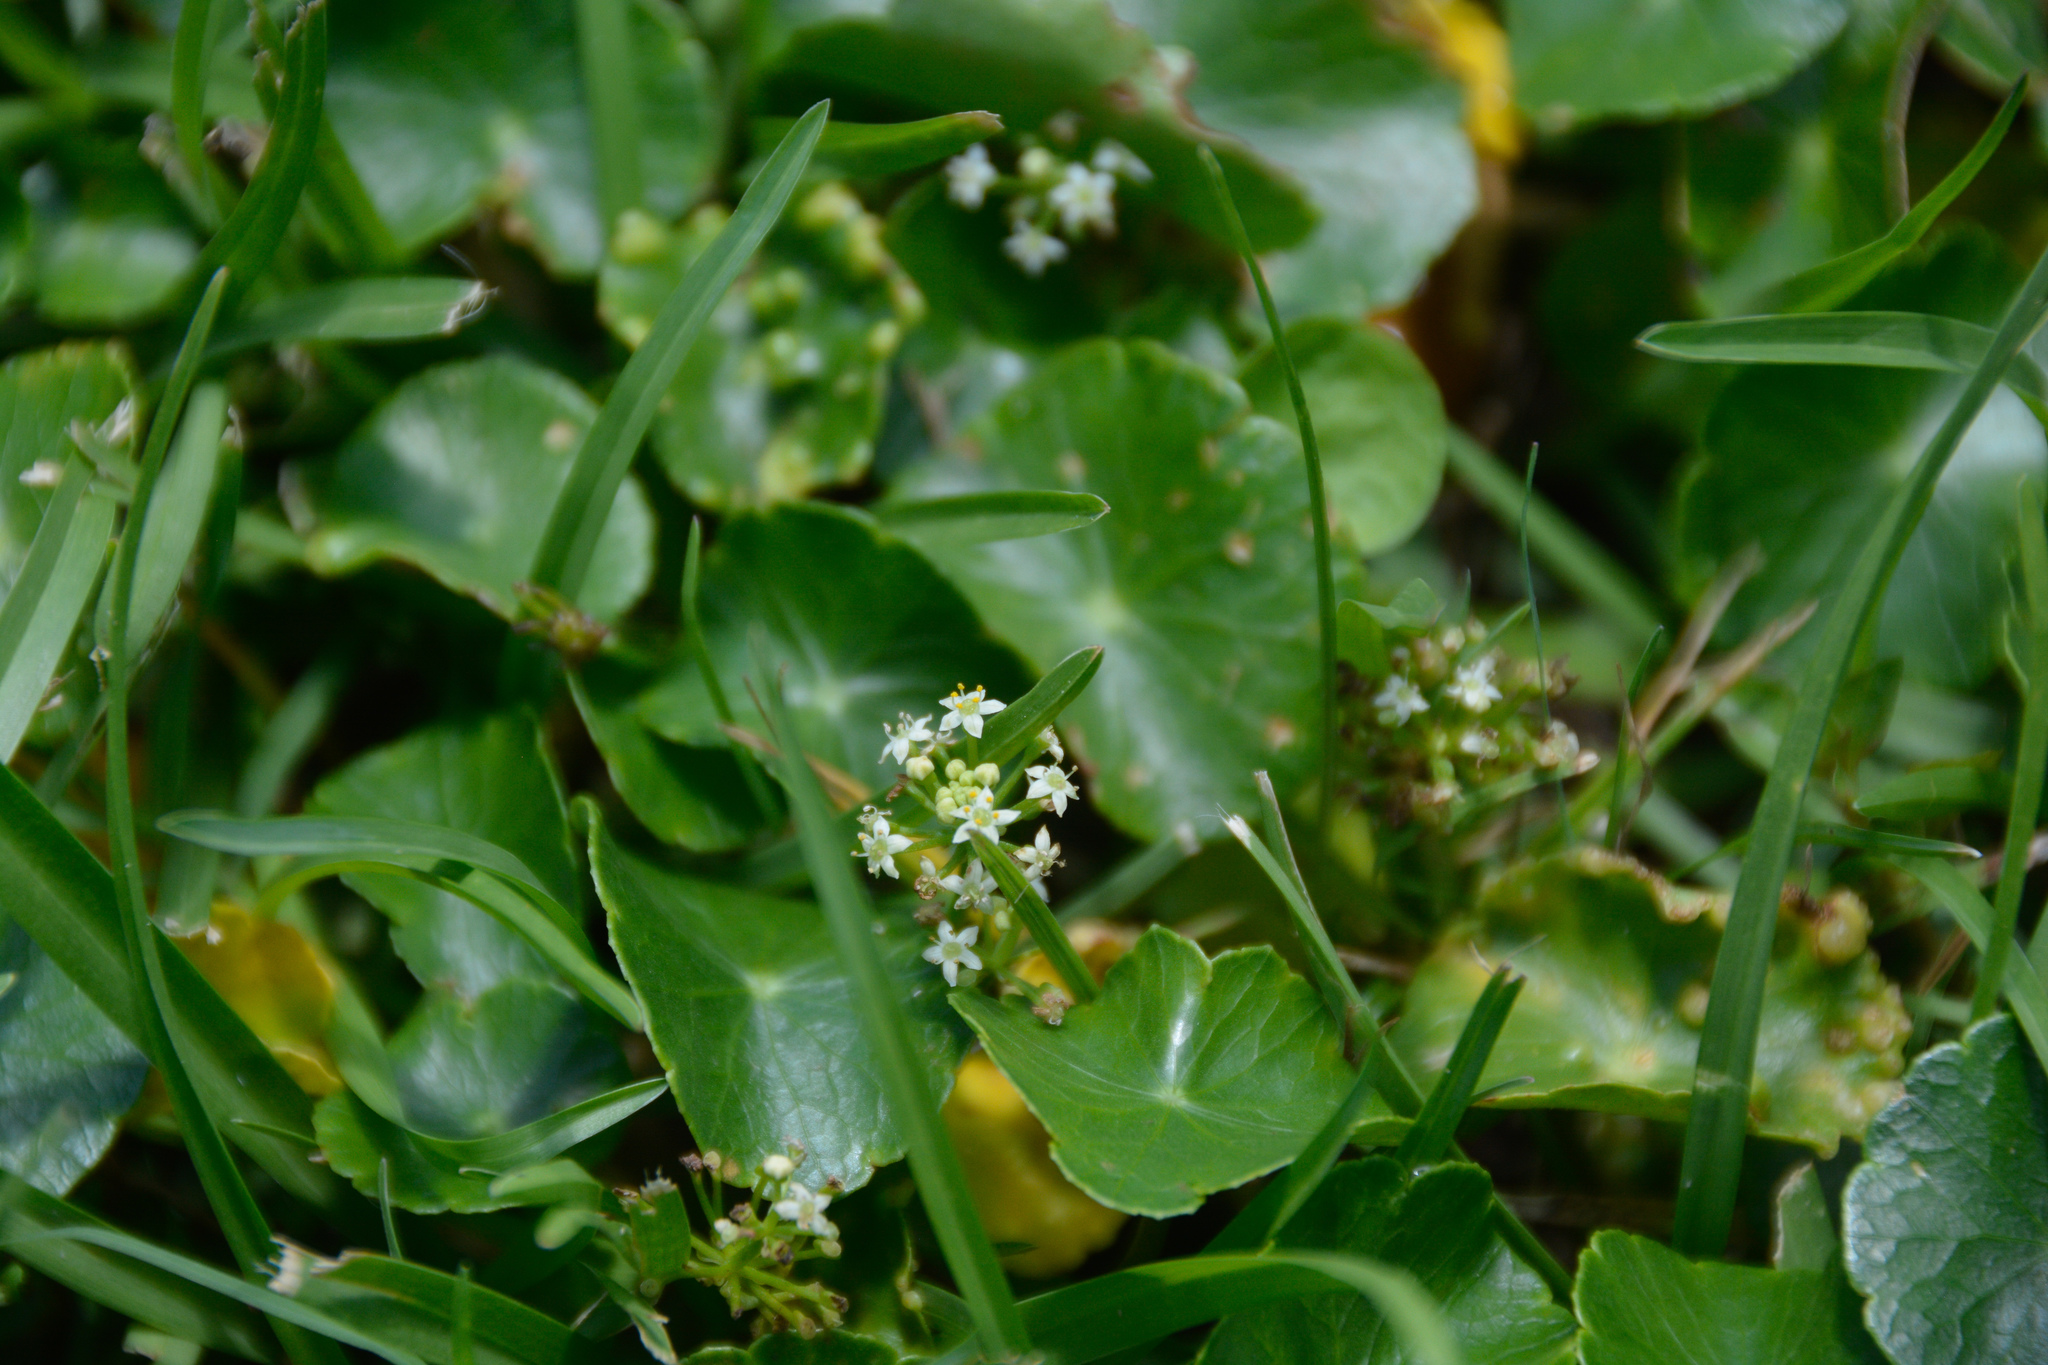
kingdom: Plantae
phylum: Tracheophyta
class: Magnoliopsida
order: Apiales
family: Araliaceae
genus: Hydrocotyle
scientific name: Hydrocotyle umbellata
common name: Water pennywort
